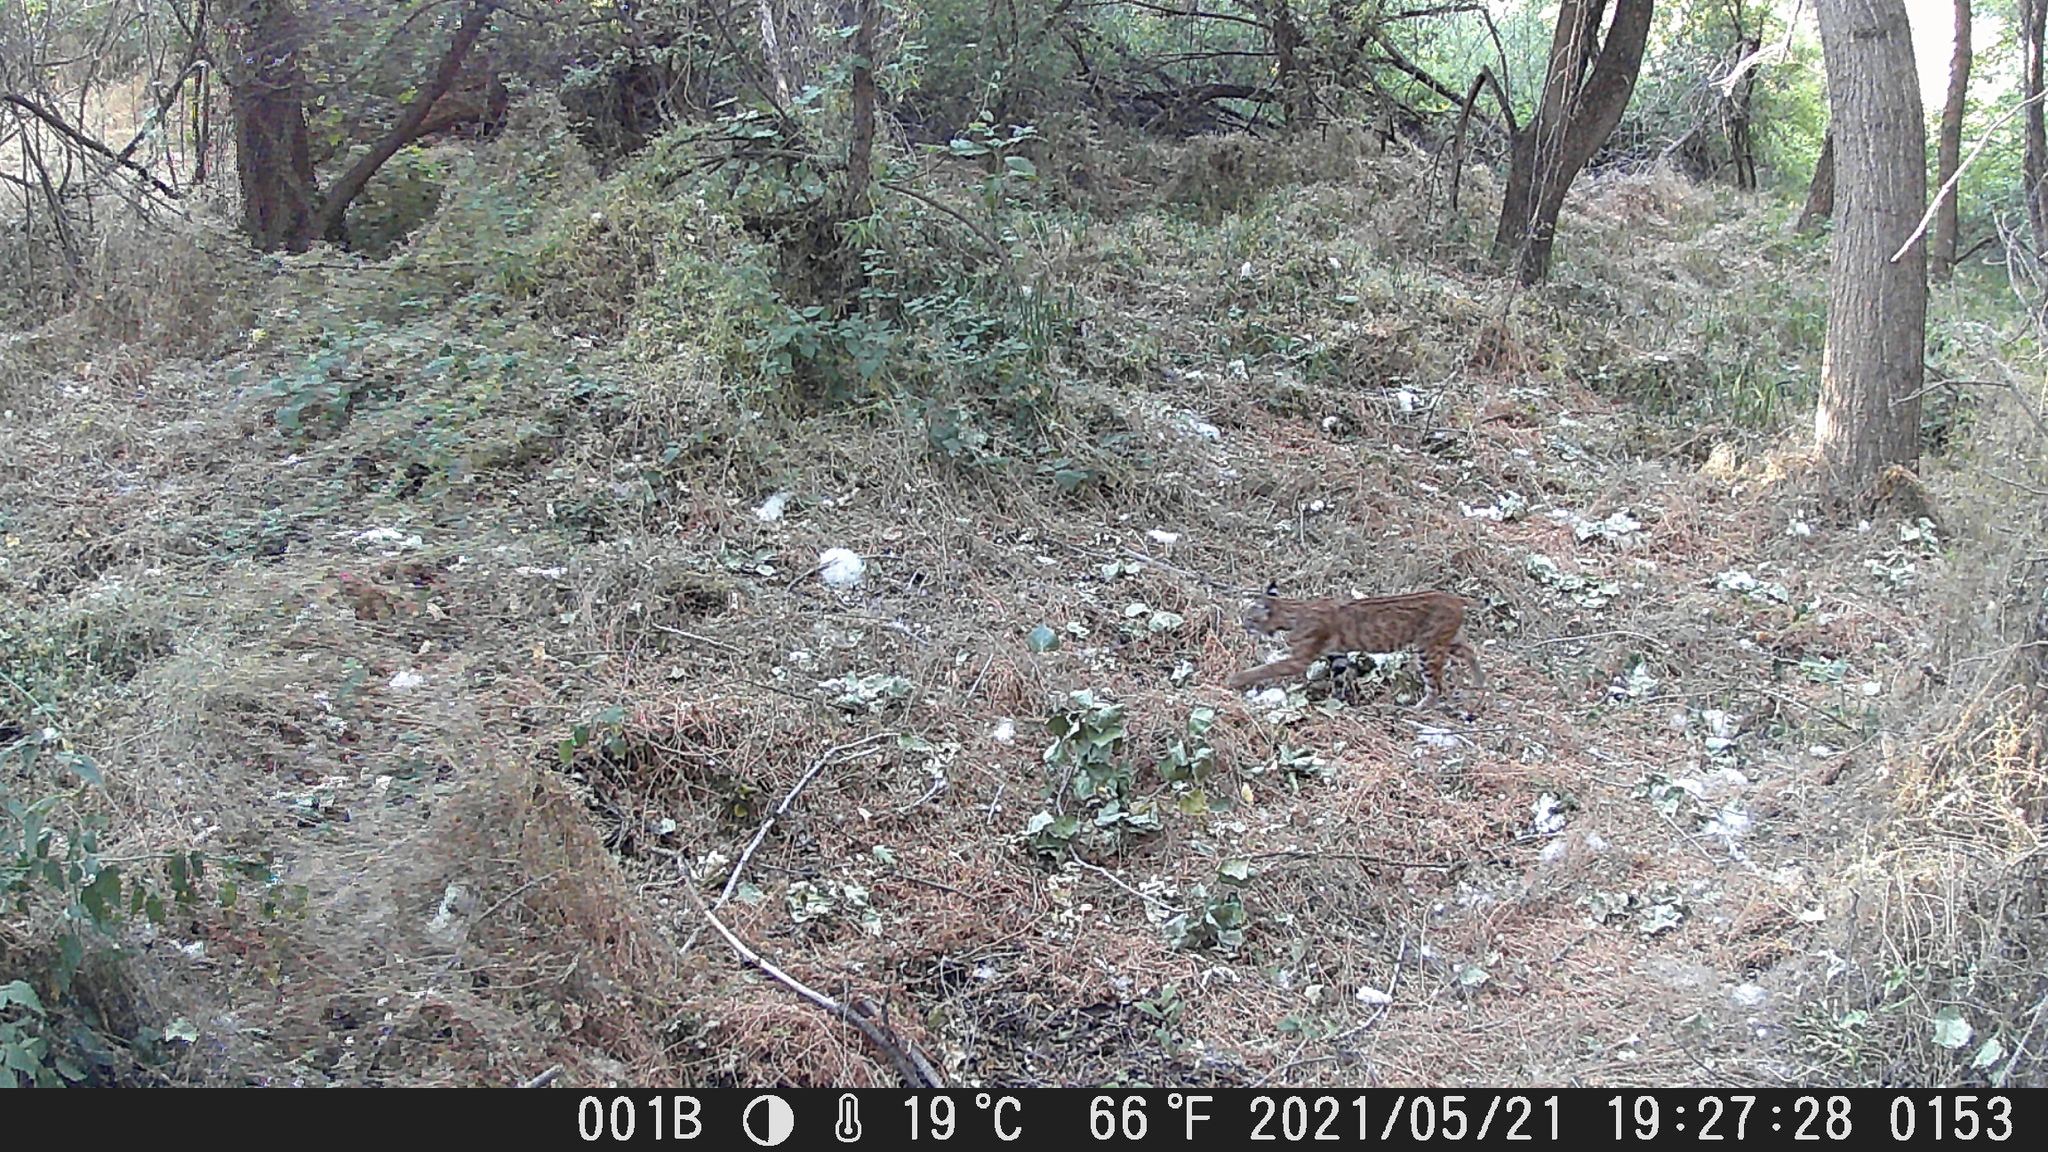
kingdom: Animalia
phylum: Chordata
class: Mammalia
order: Carnivora
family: Felidae
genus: Lynx
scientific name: Lynx rufus
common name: Bobcat
